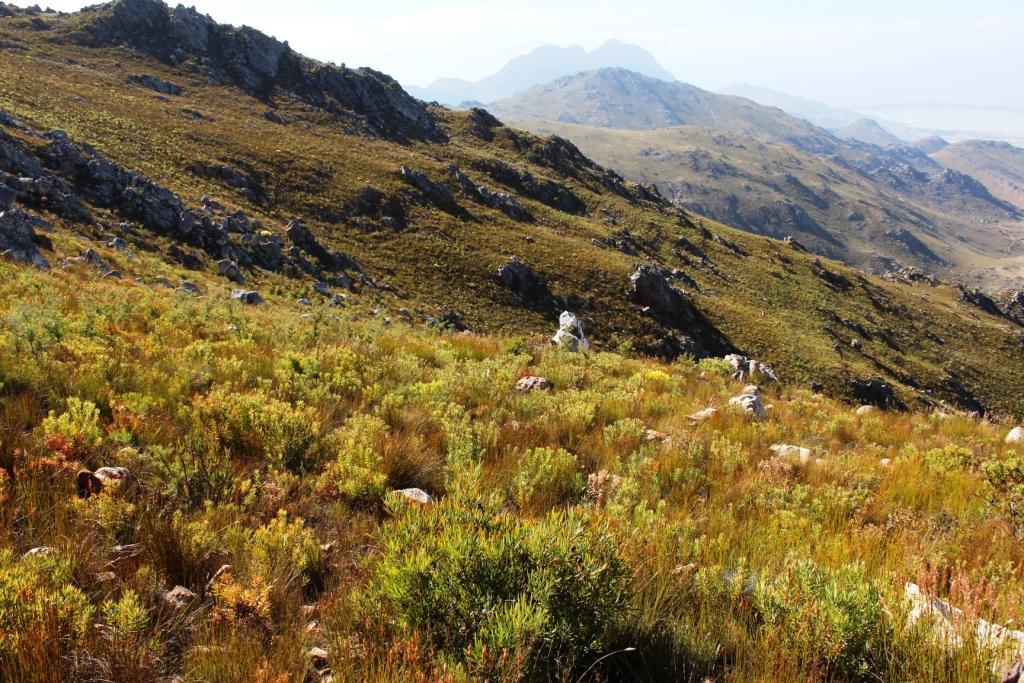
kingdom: Plantae
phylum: Tracheophyta
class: Magnoliopsida
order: Proteales
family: Proteaceae
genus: Leucadendron
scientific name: Leucadendron sessile
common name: Western sunbush
